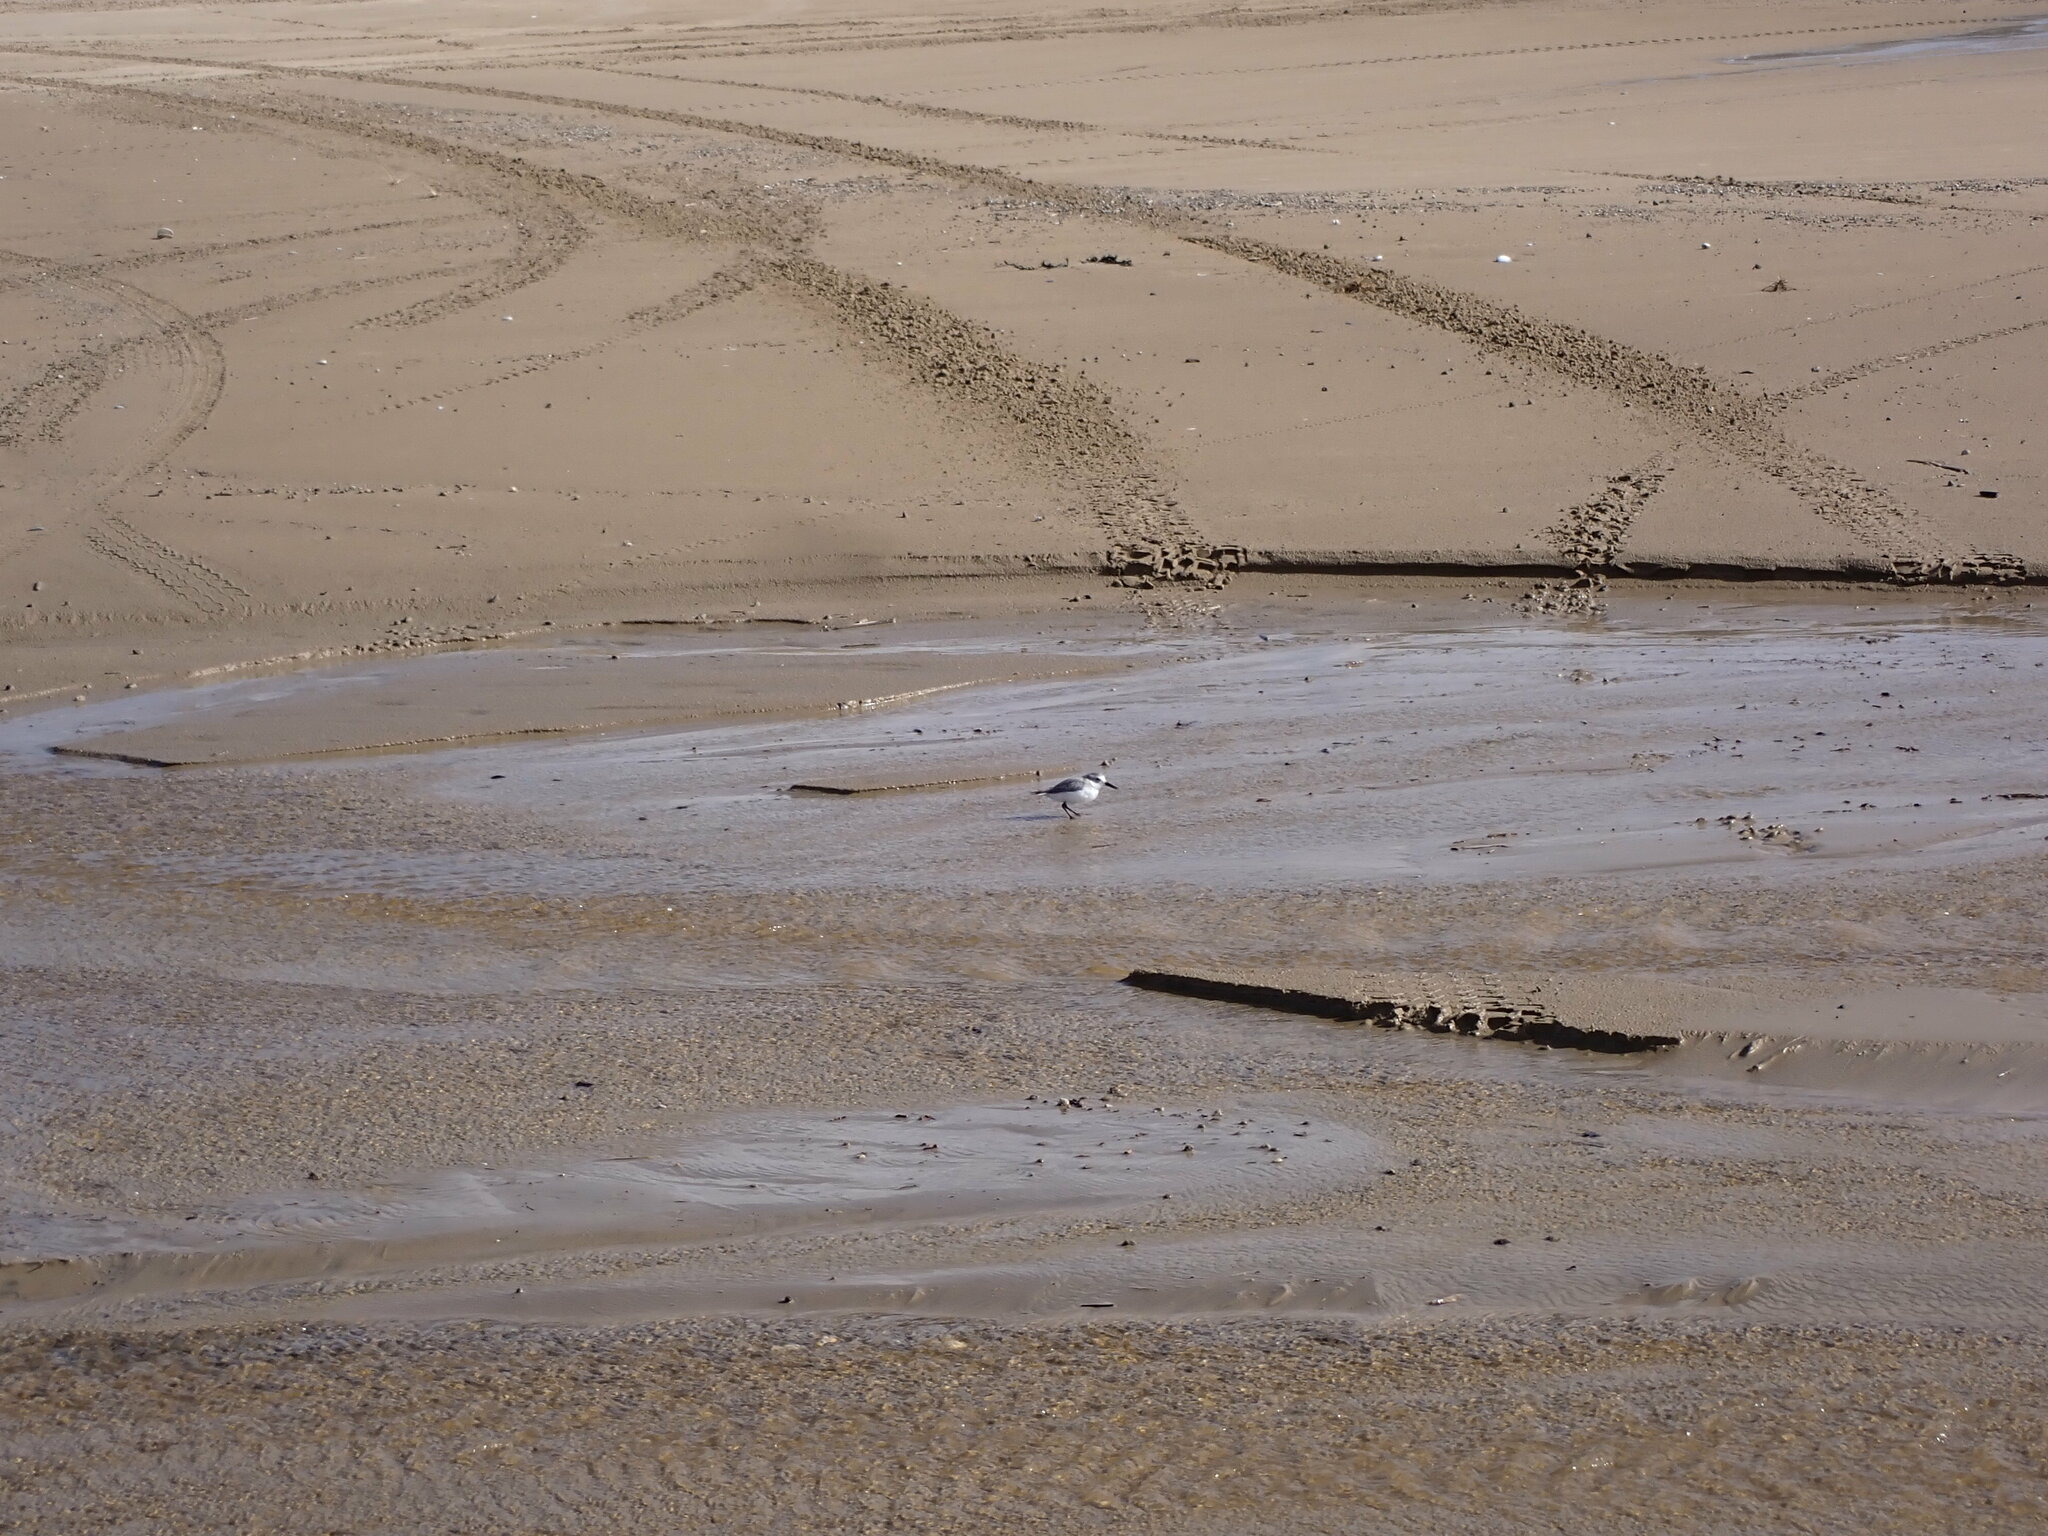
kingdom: Animalia
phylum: Chordata
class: Aves
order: Charadriiformes
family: Charadriidae
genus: Anarhynchus
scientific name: Anarhynchus frontalis
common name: Wrybill
